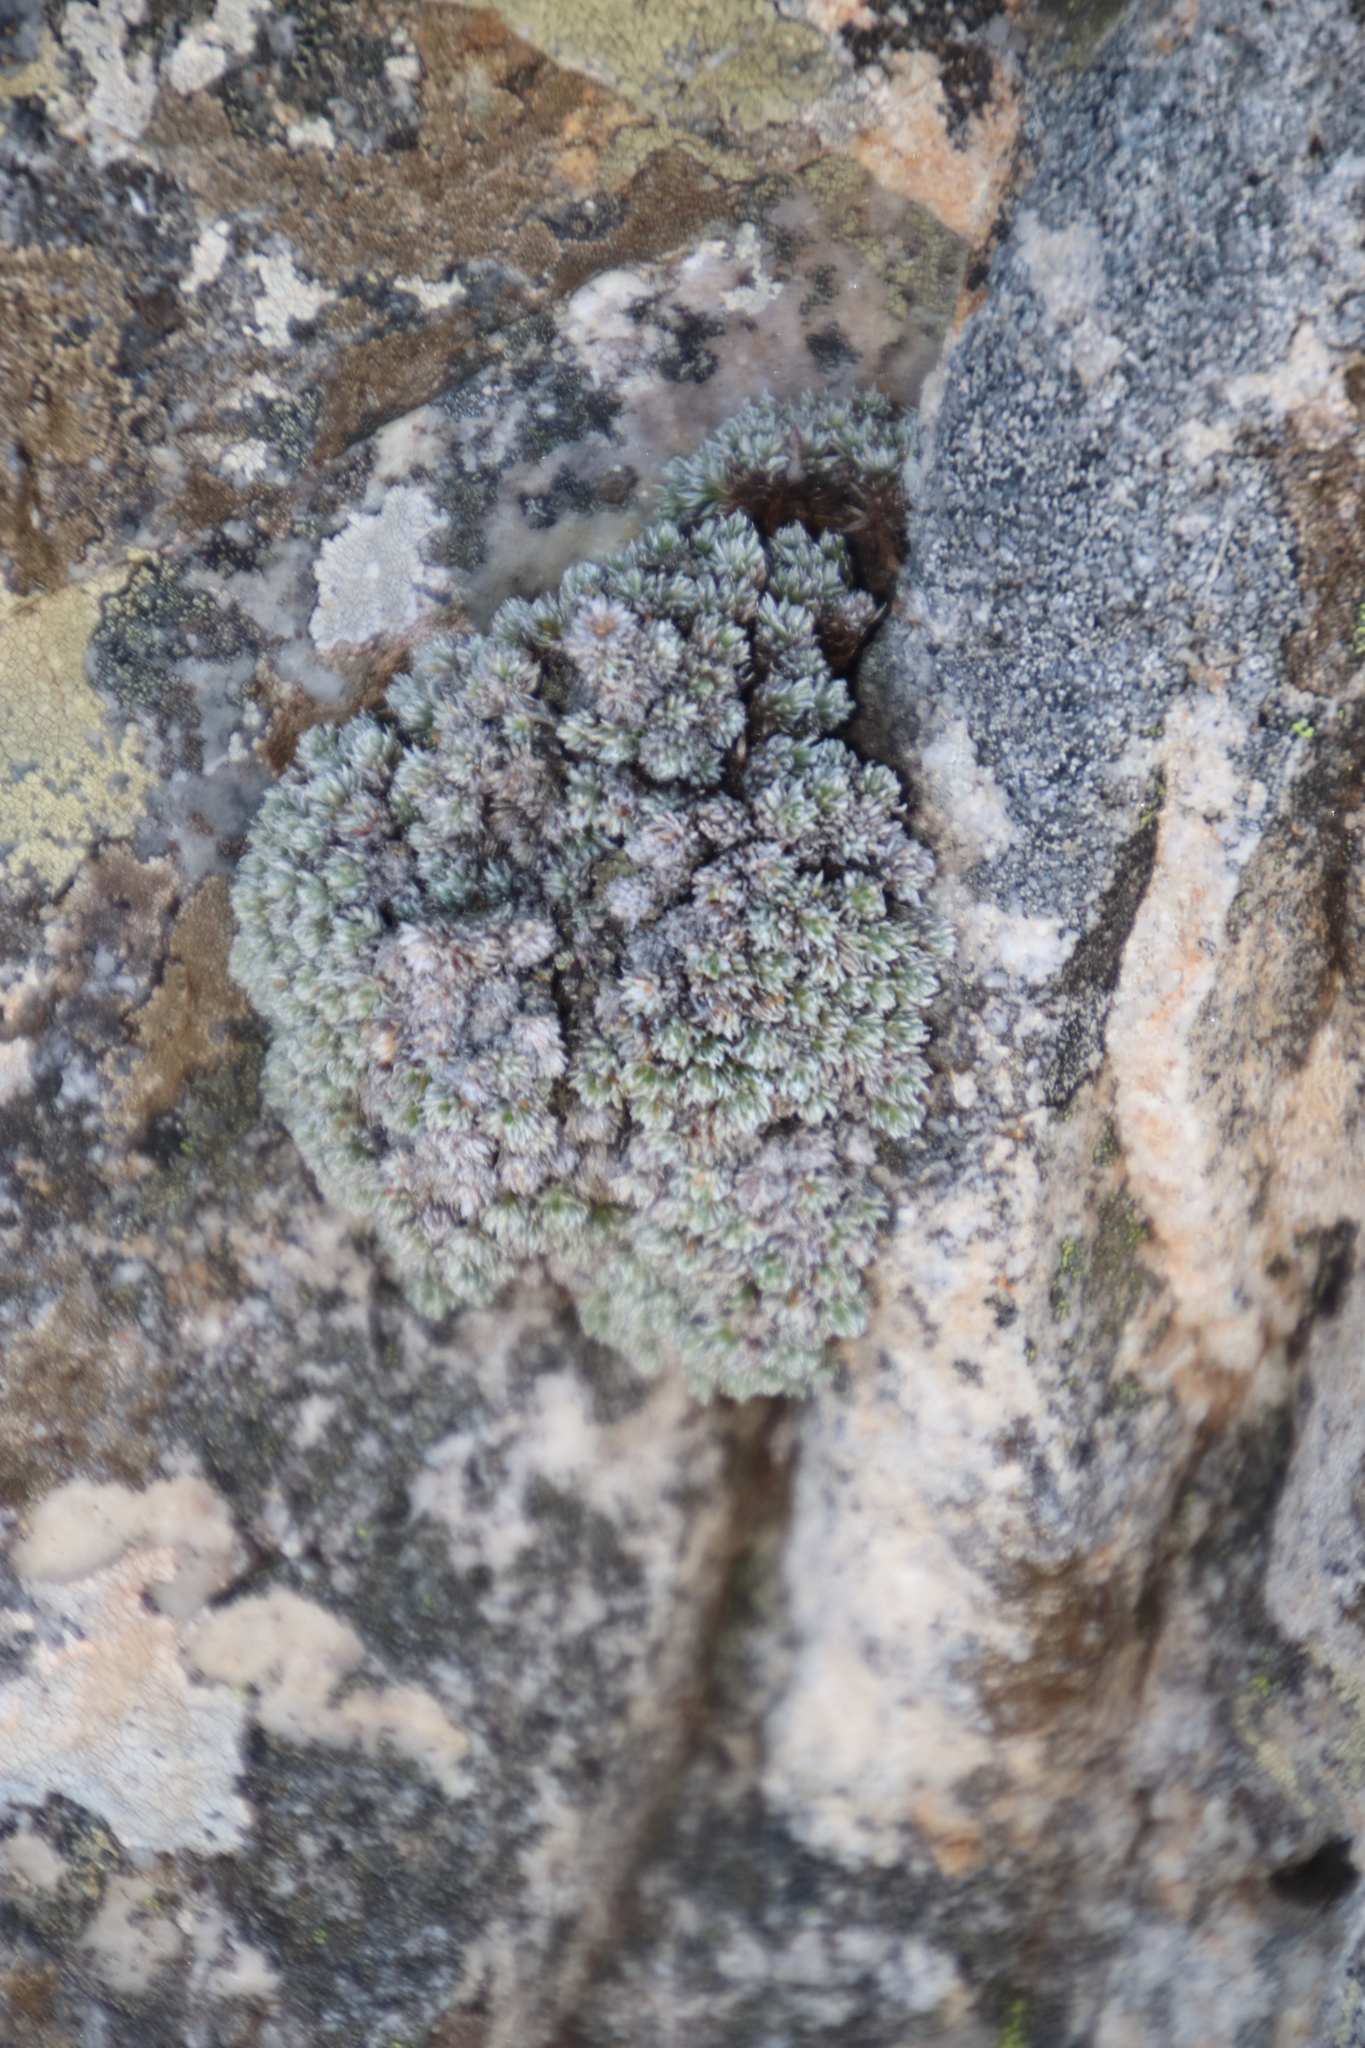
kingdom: Plantae
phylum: Tracheophyta
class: Magnoliopsida
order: Asterales
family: Asteraceae
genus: Muscosomorphe
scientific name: Muscosomorphe aretioides
